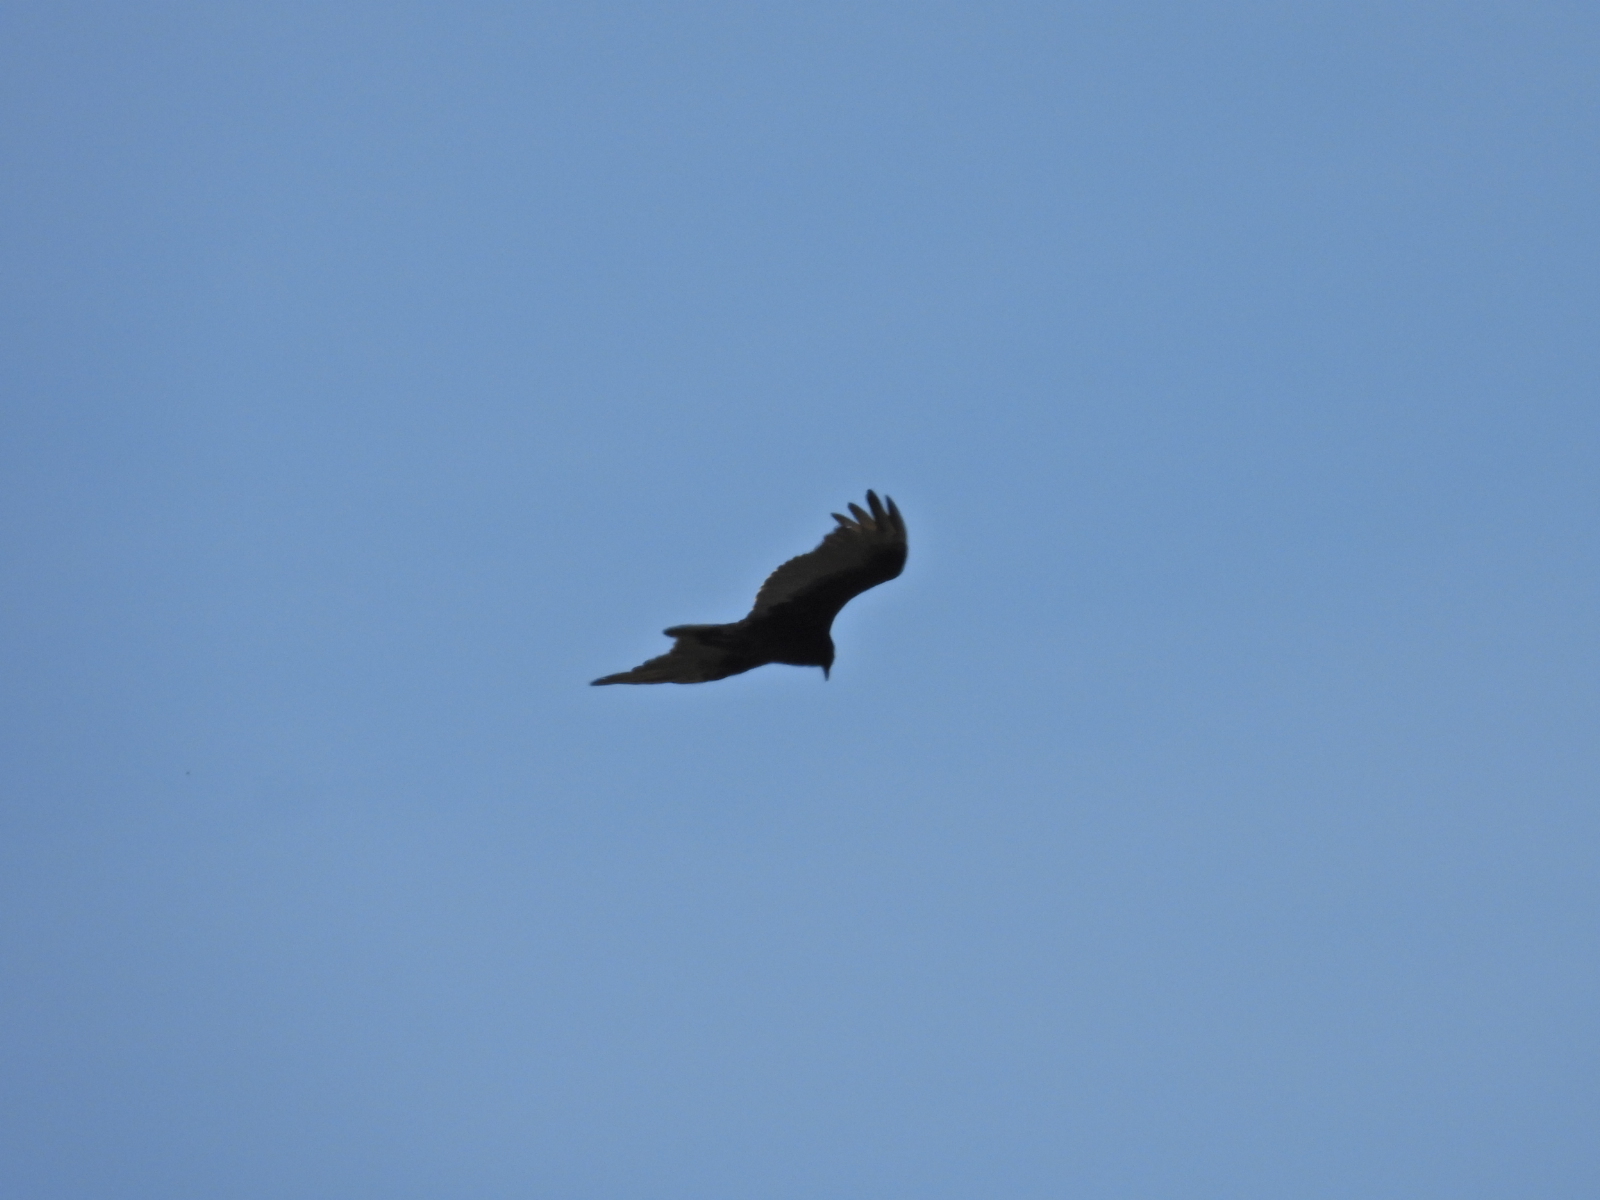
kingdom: Animalia
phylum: Chordata
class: Aves
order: Accipitriformes
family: Cathartidae
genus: Cathartes
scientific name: Cathartes aura
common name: Turkey vulture
